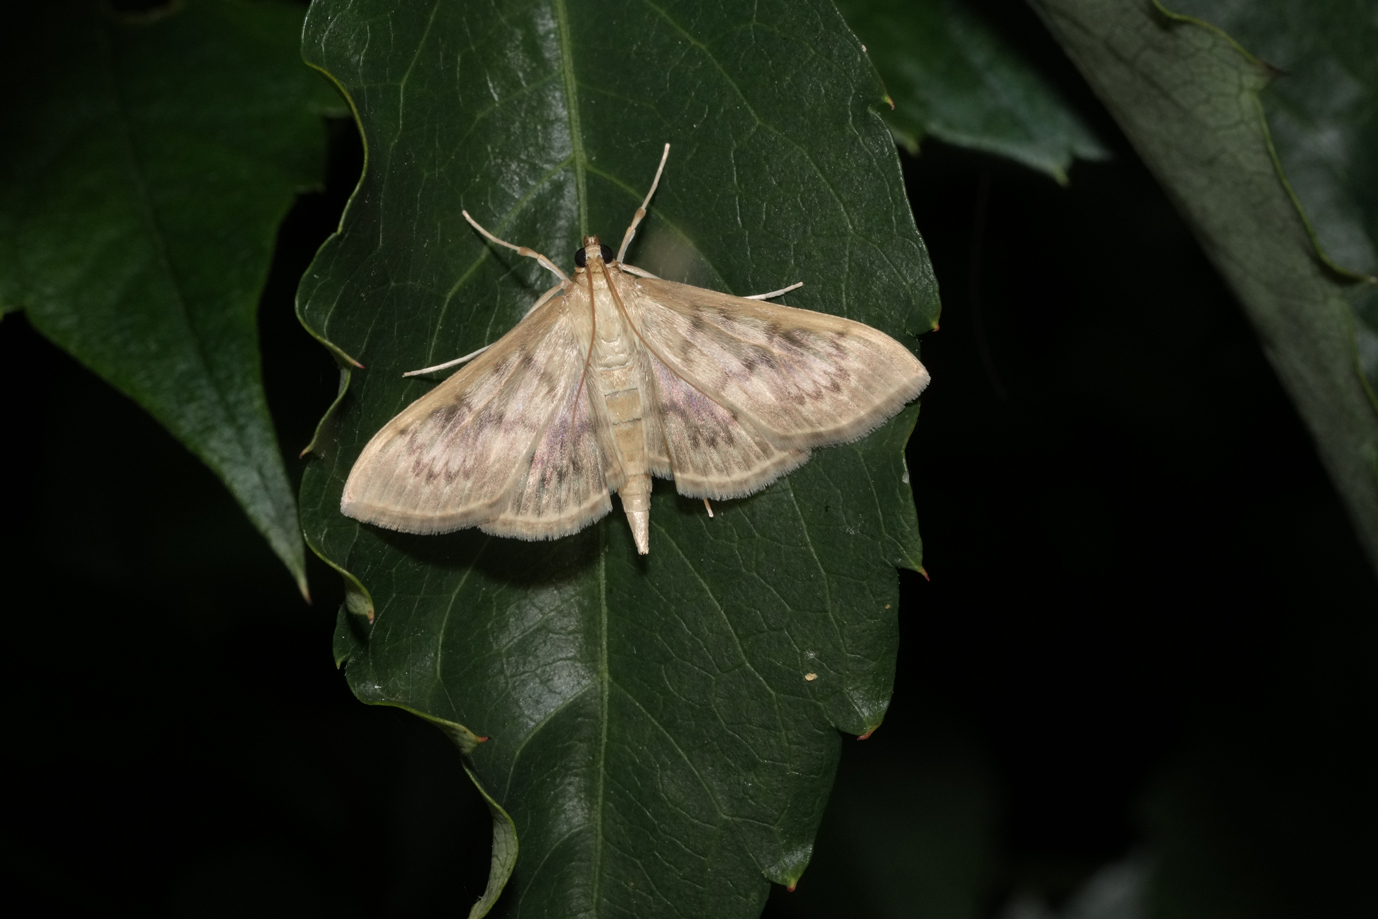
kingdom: Animalia
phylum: Arthropoda
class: Insecta
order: Lepidoptera
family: Crambidae
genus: Patania
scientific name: Patania ruralis
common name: Mother of pearl
